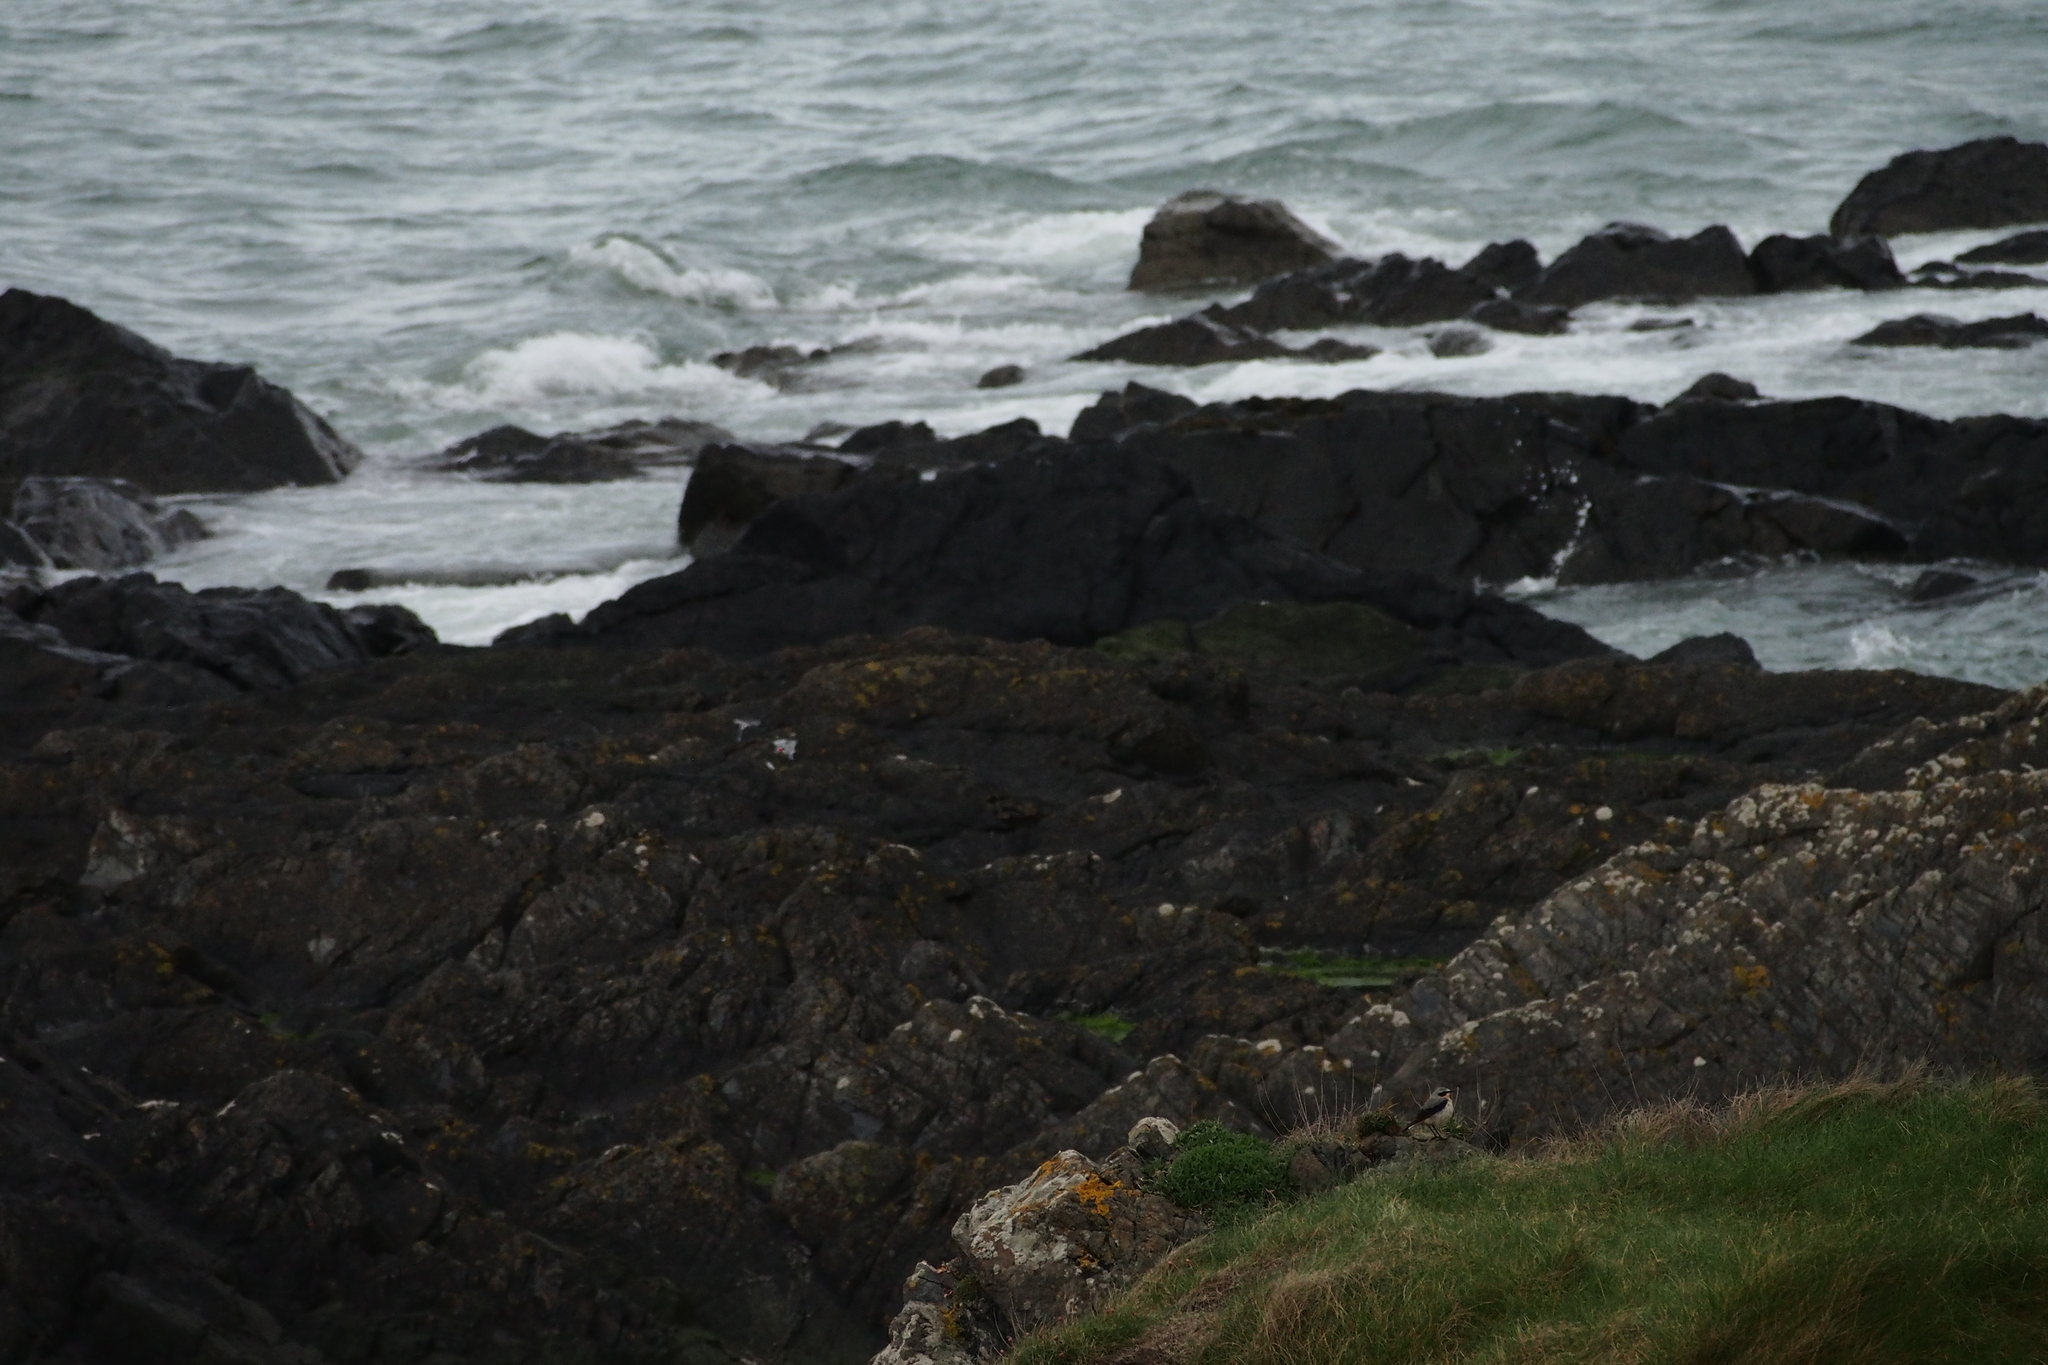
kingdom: Animalia
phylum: Chordata
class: Aves
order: Passeriformes
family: Muscicapidae
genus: Oenanthe
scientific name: Oenanthe oenanthe
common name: Northern wheatear
